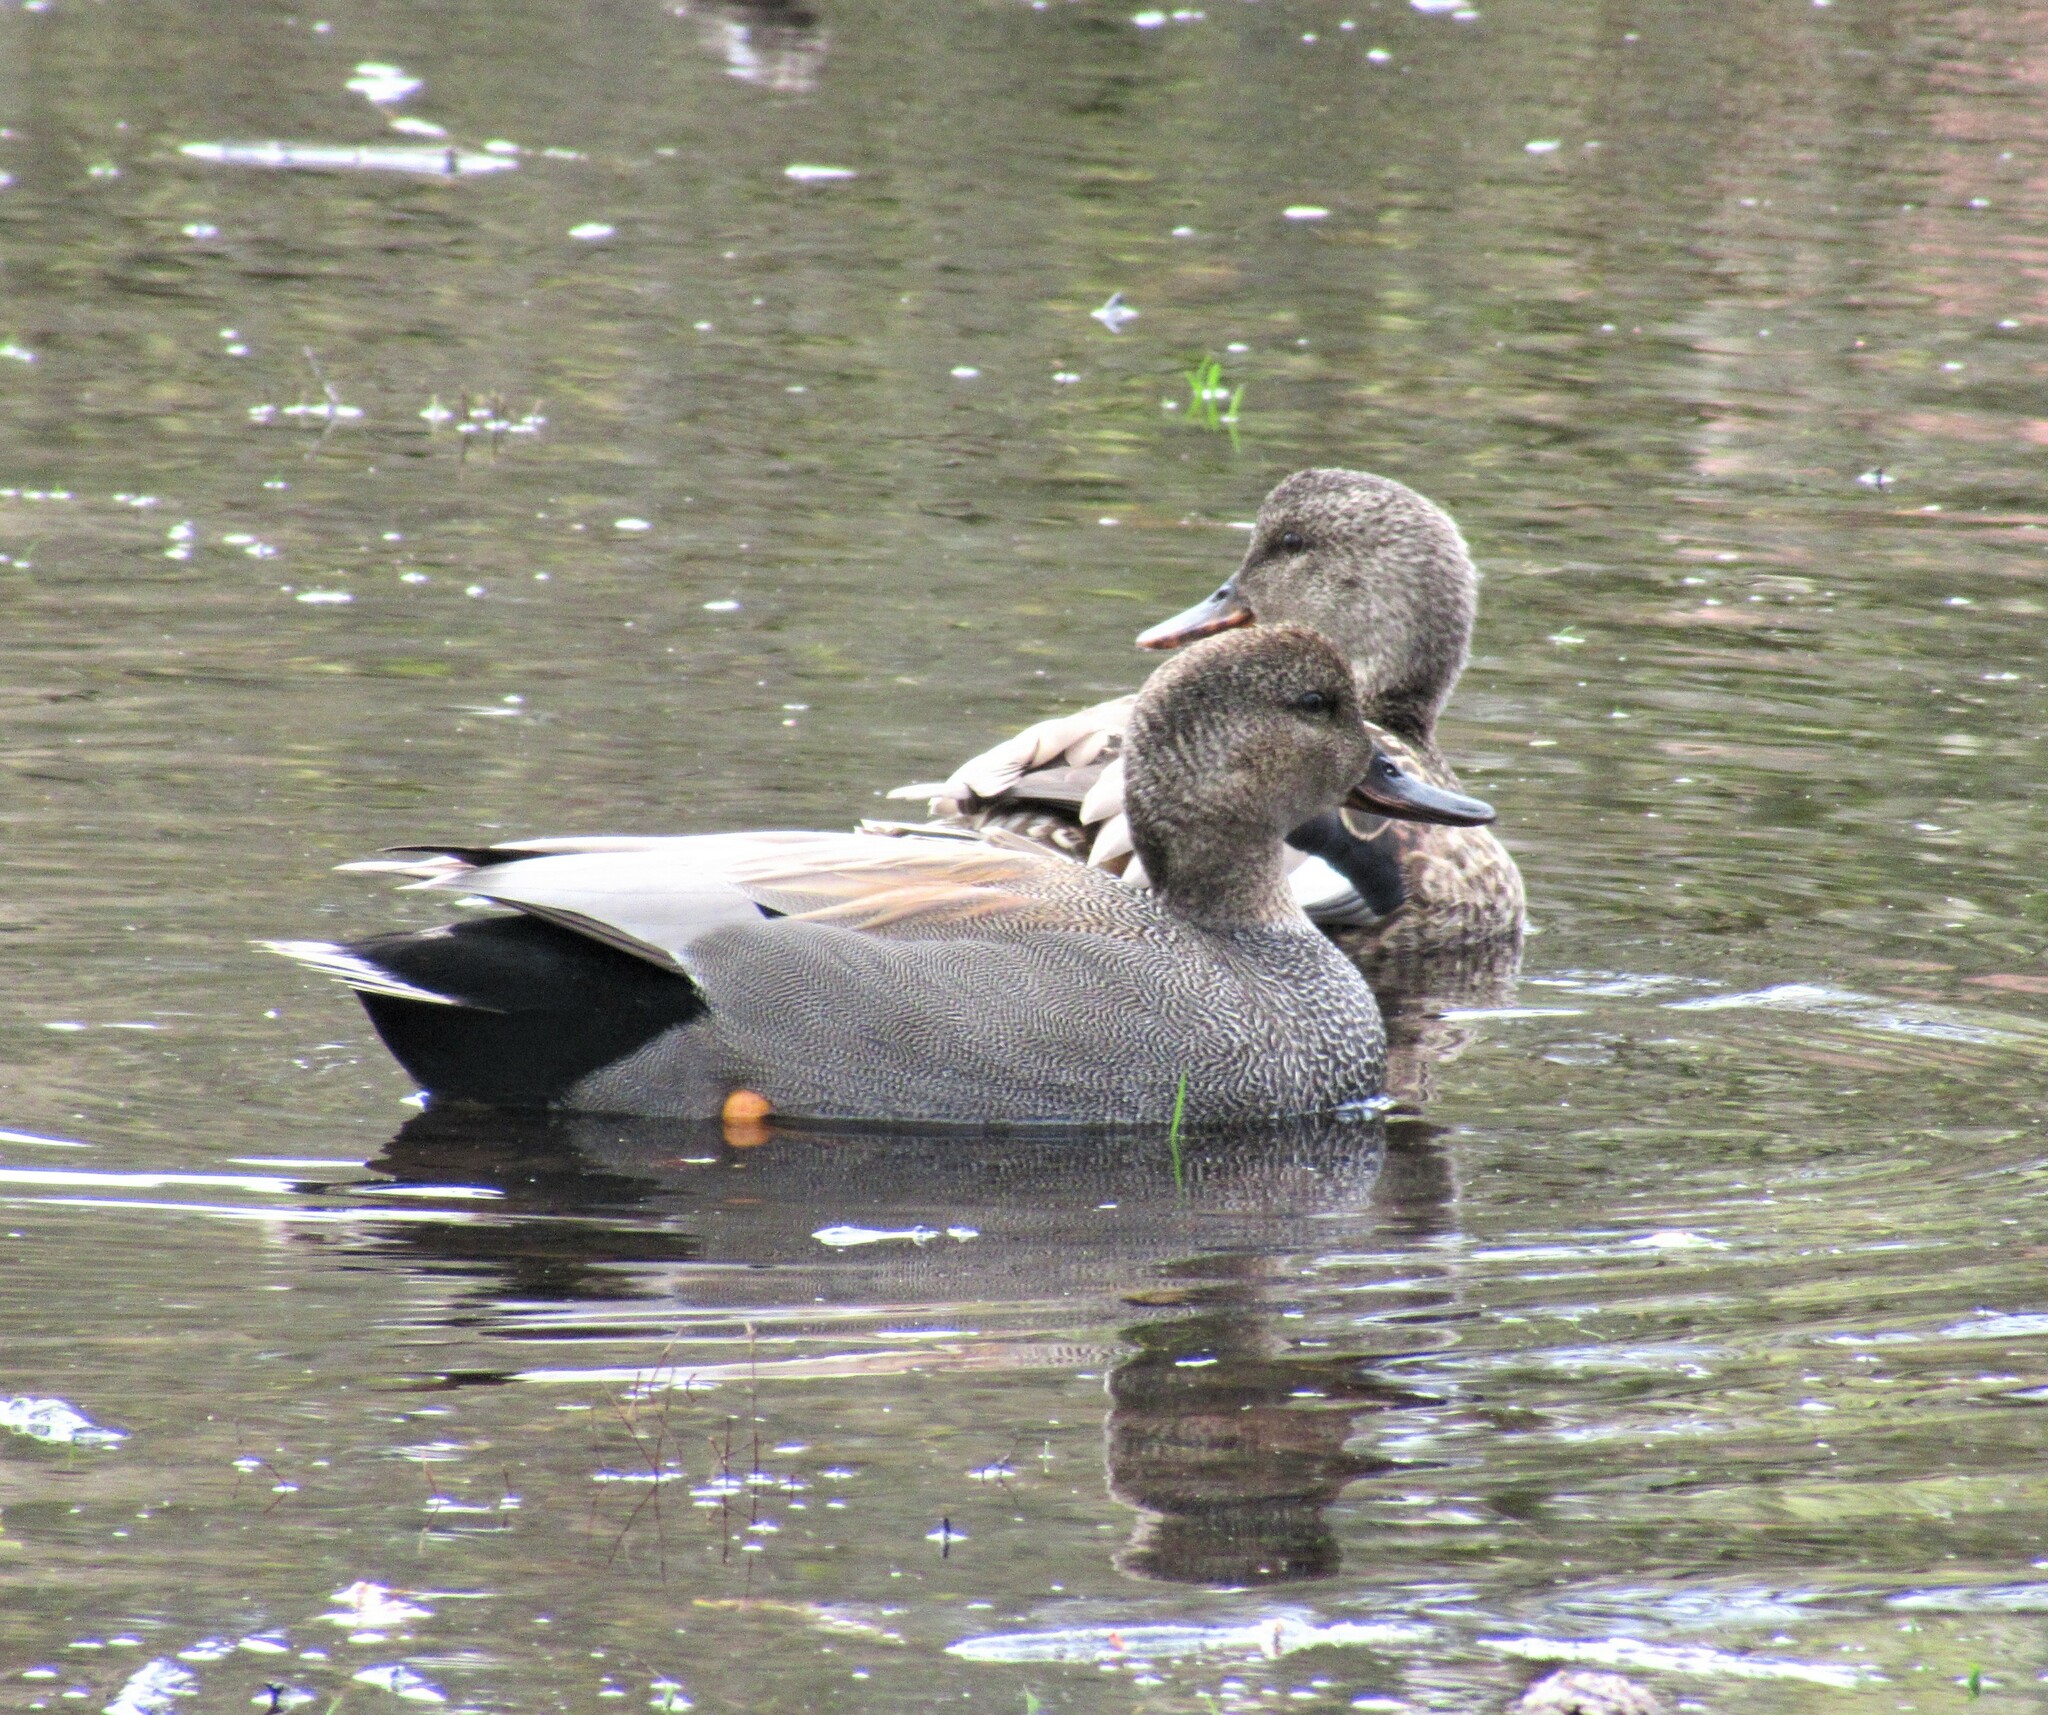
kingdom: Animalia
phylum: Chordata
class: Aves
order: Anseriformes
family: Anatidae
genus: Mareca
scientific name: Mareca strepera
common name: Gadwall
